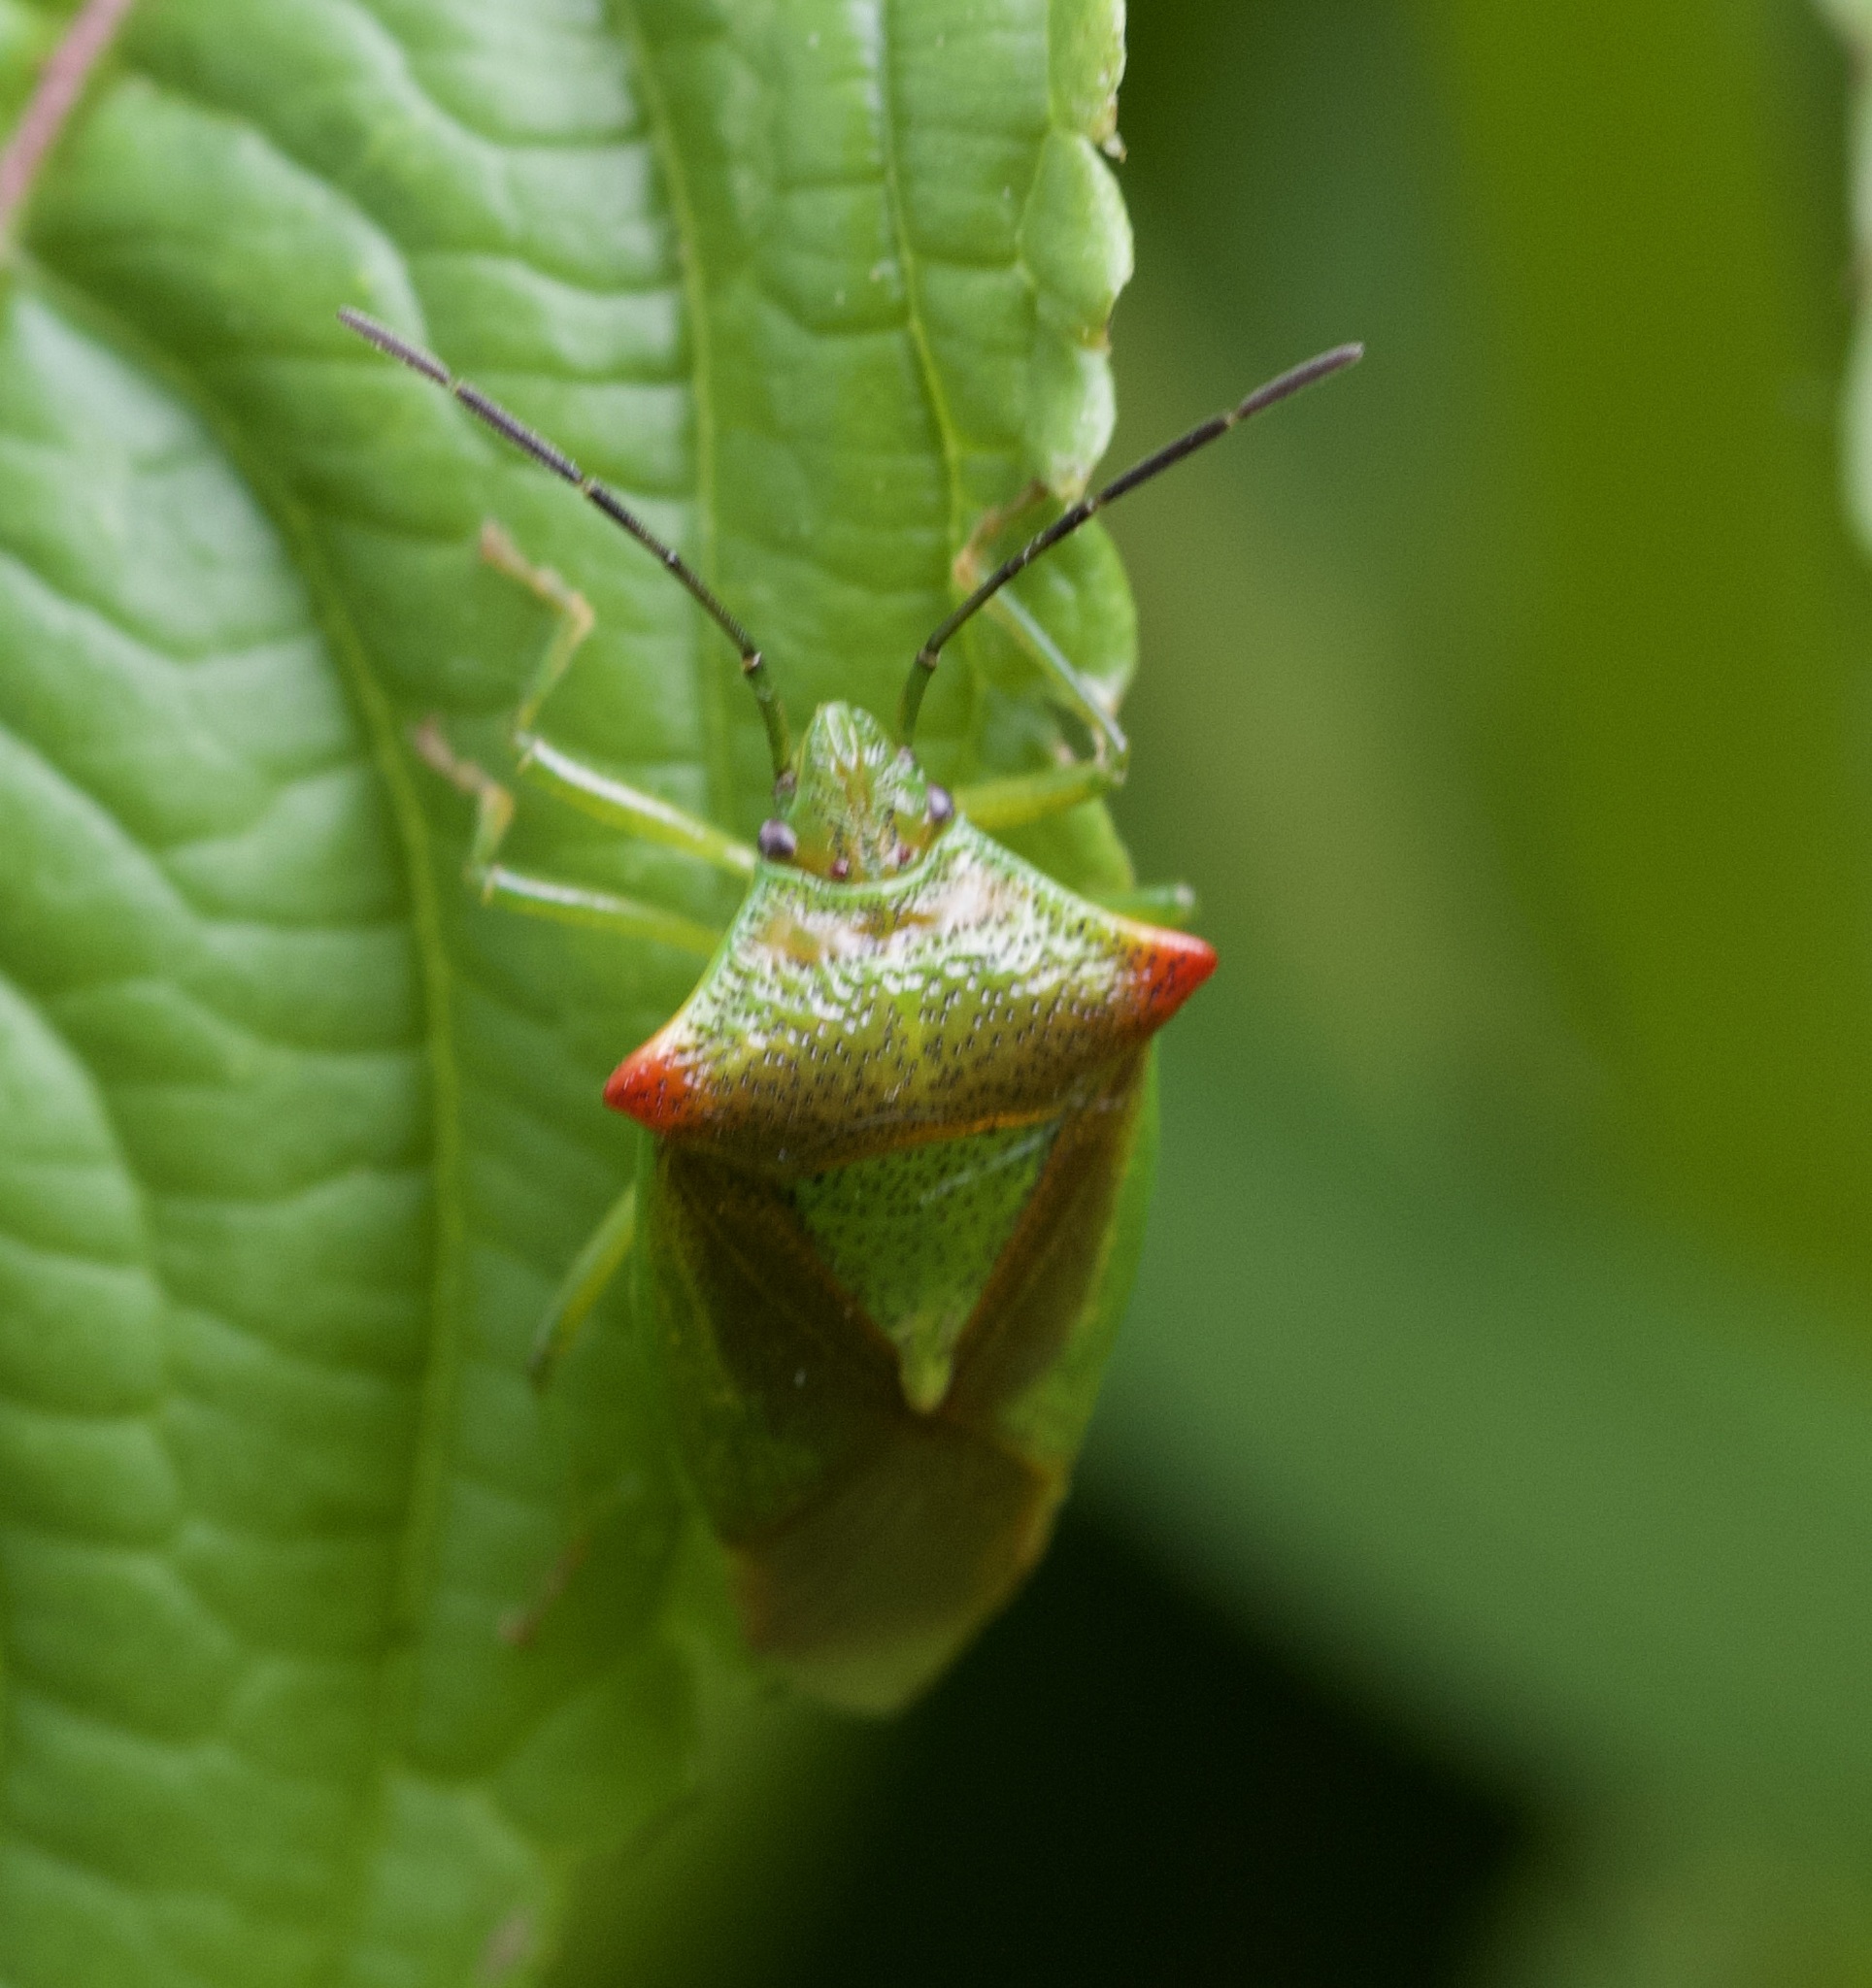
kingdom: Animalia
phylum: Arthropoda
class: Insecta
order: Hemiptera
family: Acanthosomatidae
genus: Acanthosoma
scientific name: Acanthosoma haemorrhoidale
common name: Hawthorn shieldbug
